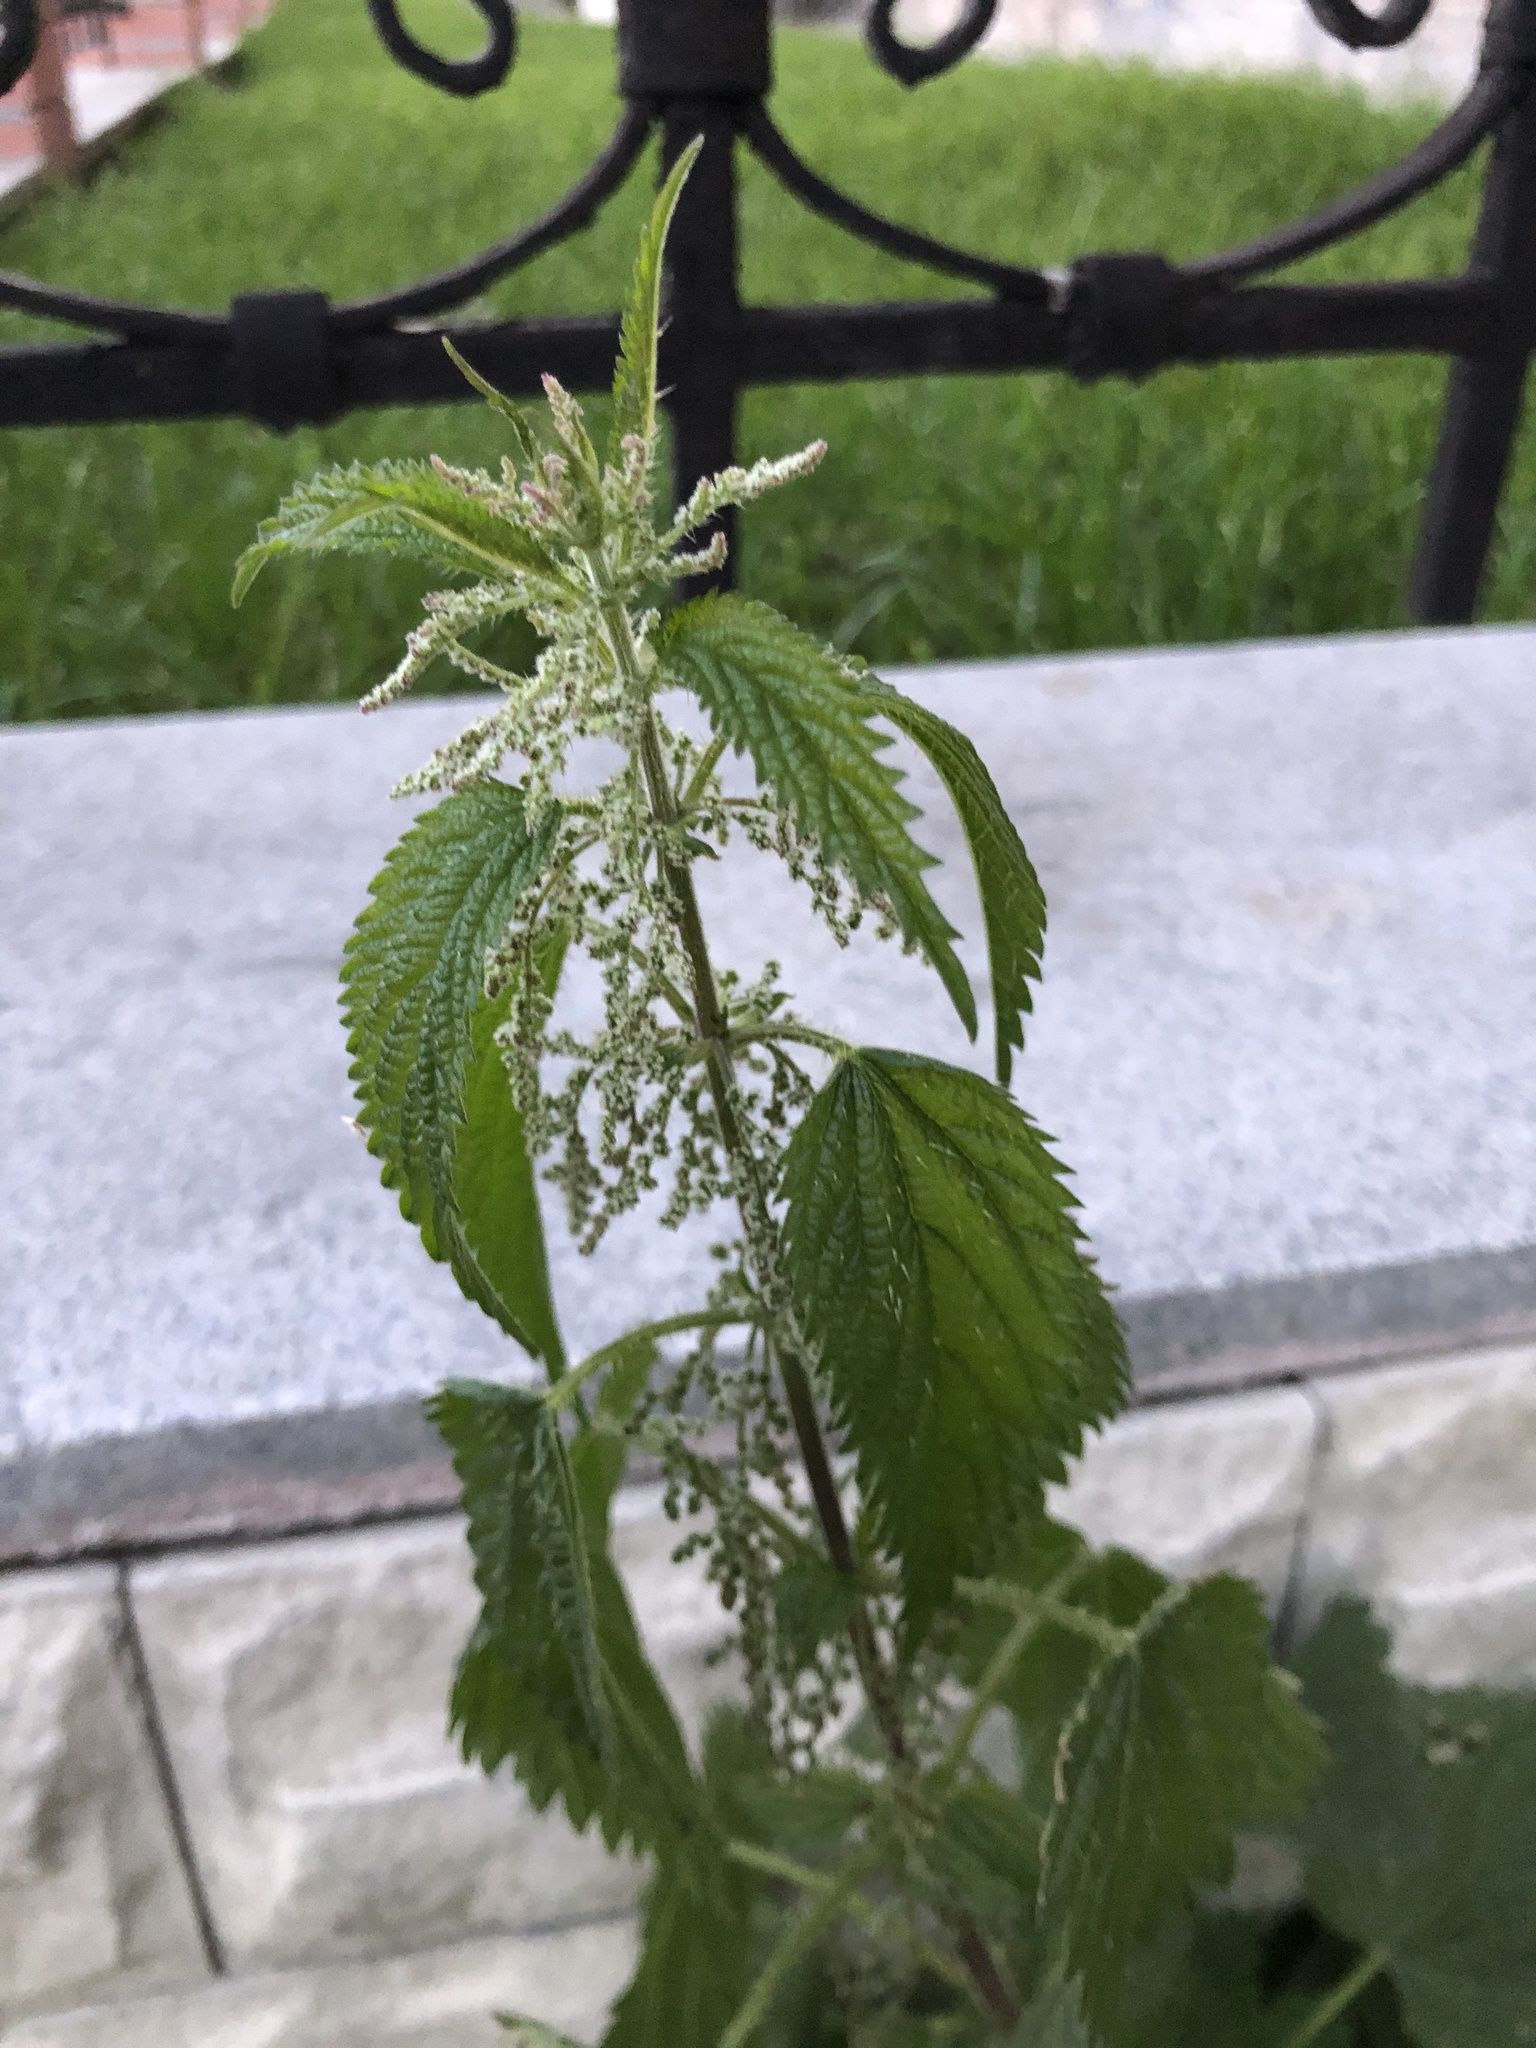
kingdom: Plantae
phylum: Tracheophyta
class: Magnoliopsida
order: Rosales
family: Urticaceae
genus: Urtica
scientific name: Urtica dioica
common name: Common nettle
